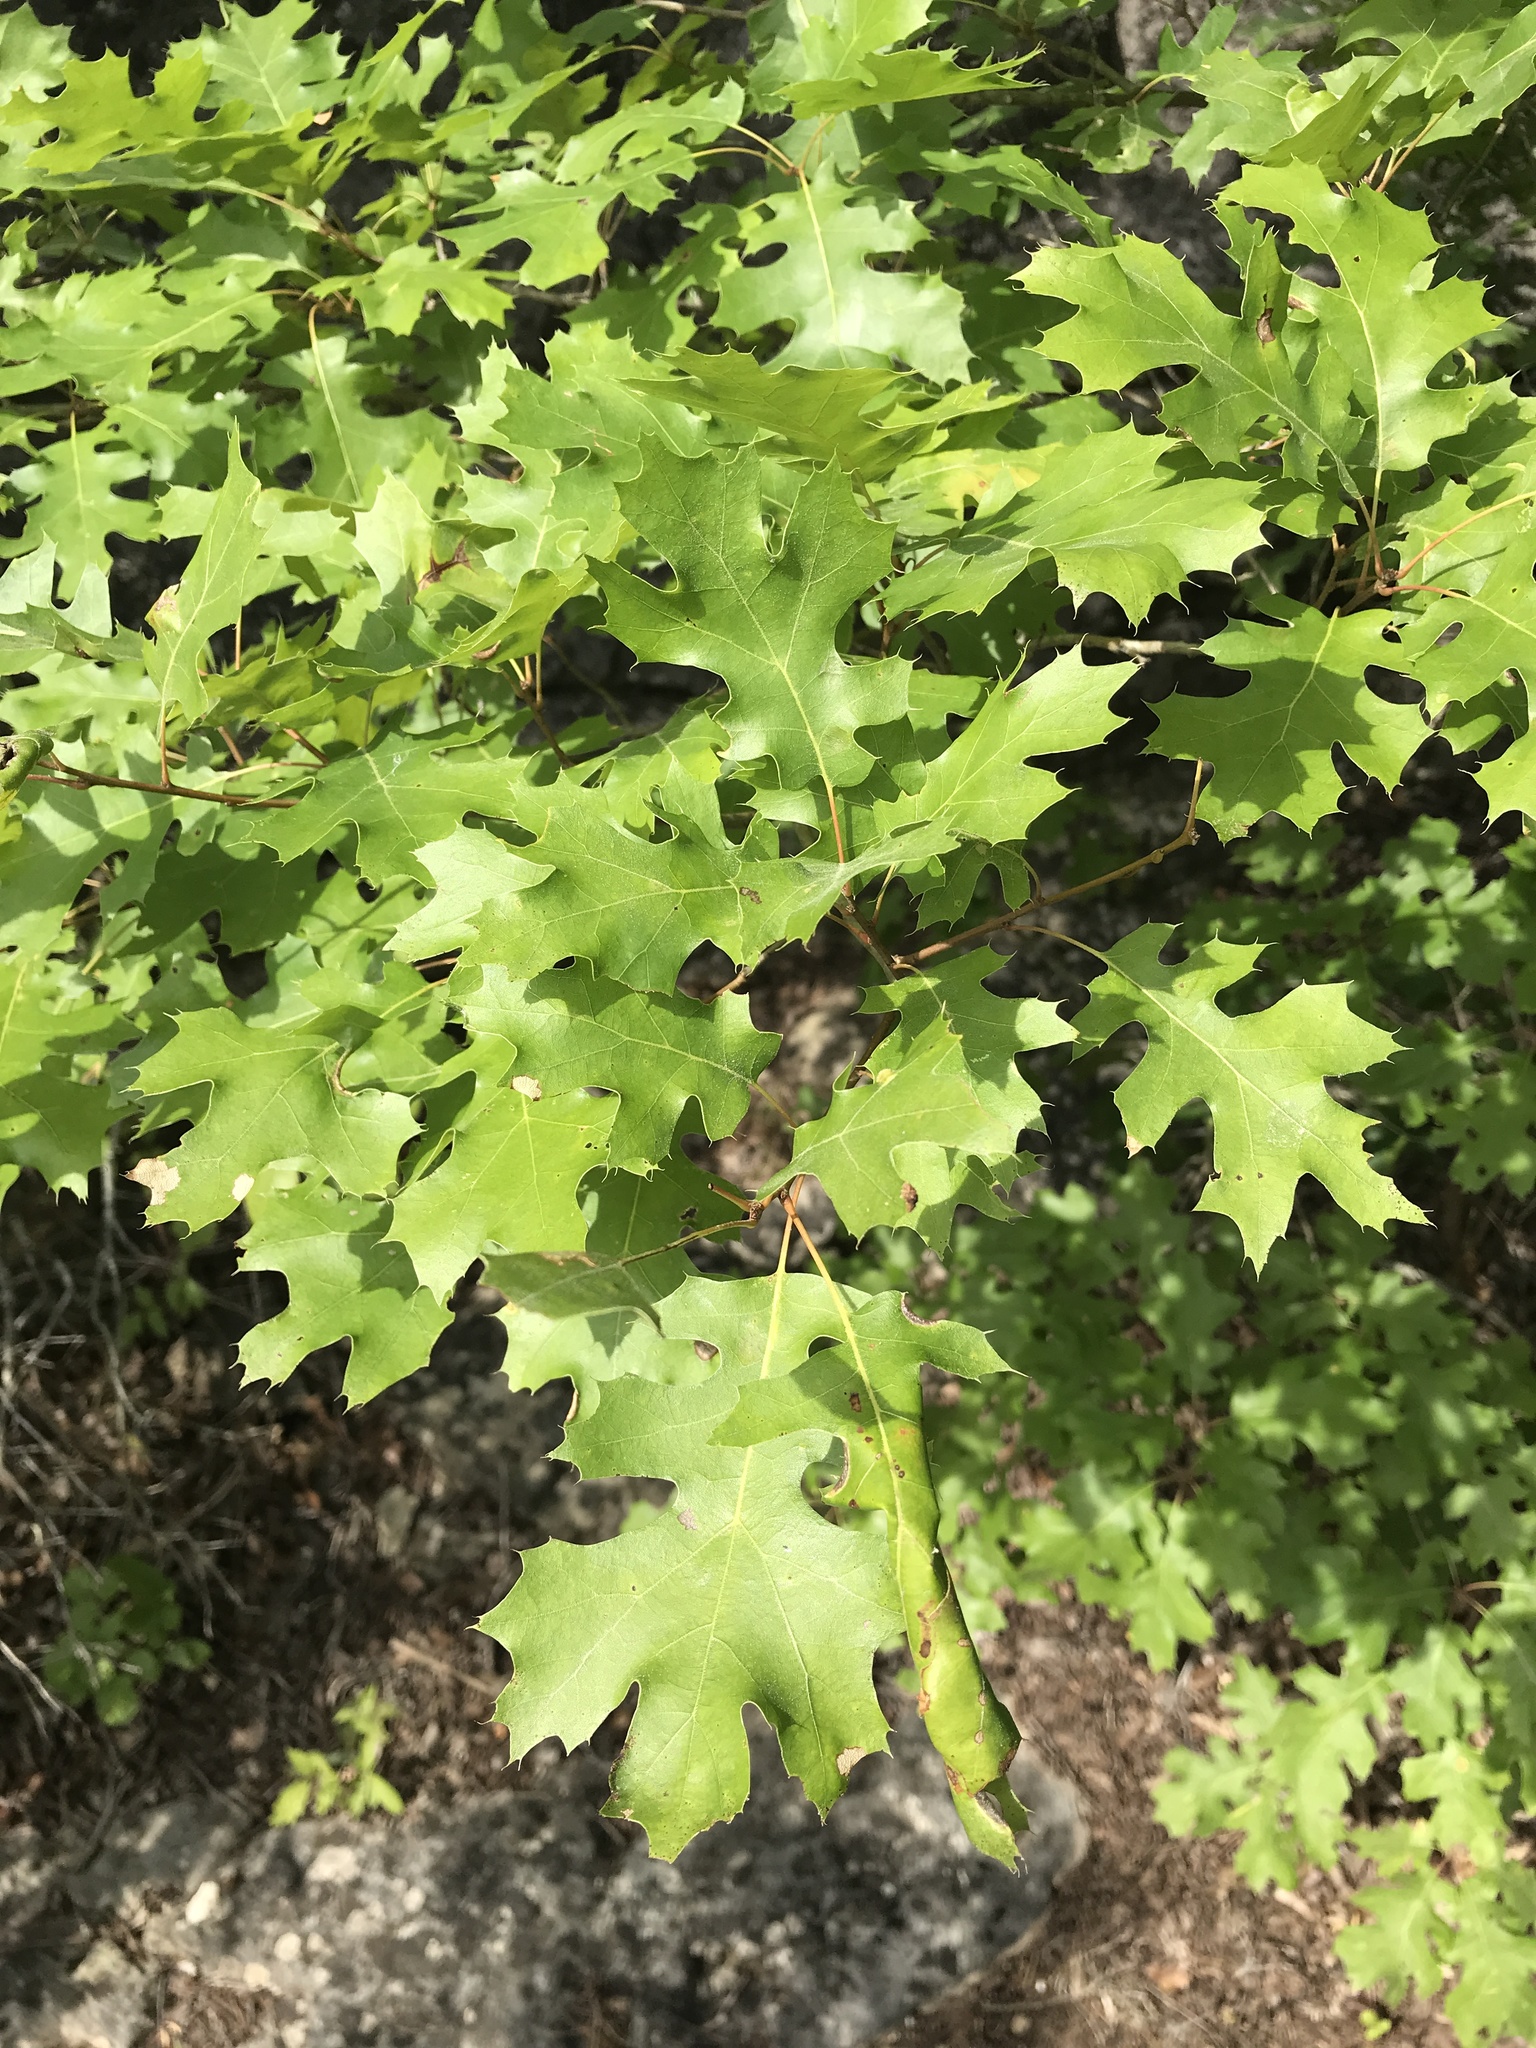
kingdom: Plantae
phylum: Tracheophyta
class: Magnoliopsida
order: Fagales
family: Fagaceae
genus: Quercus
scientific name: Quercus buckleyi
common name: Buckley oak
